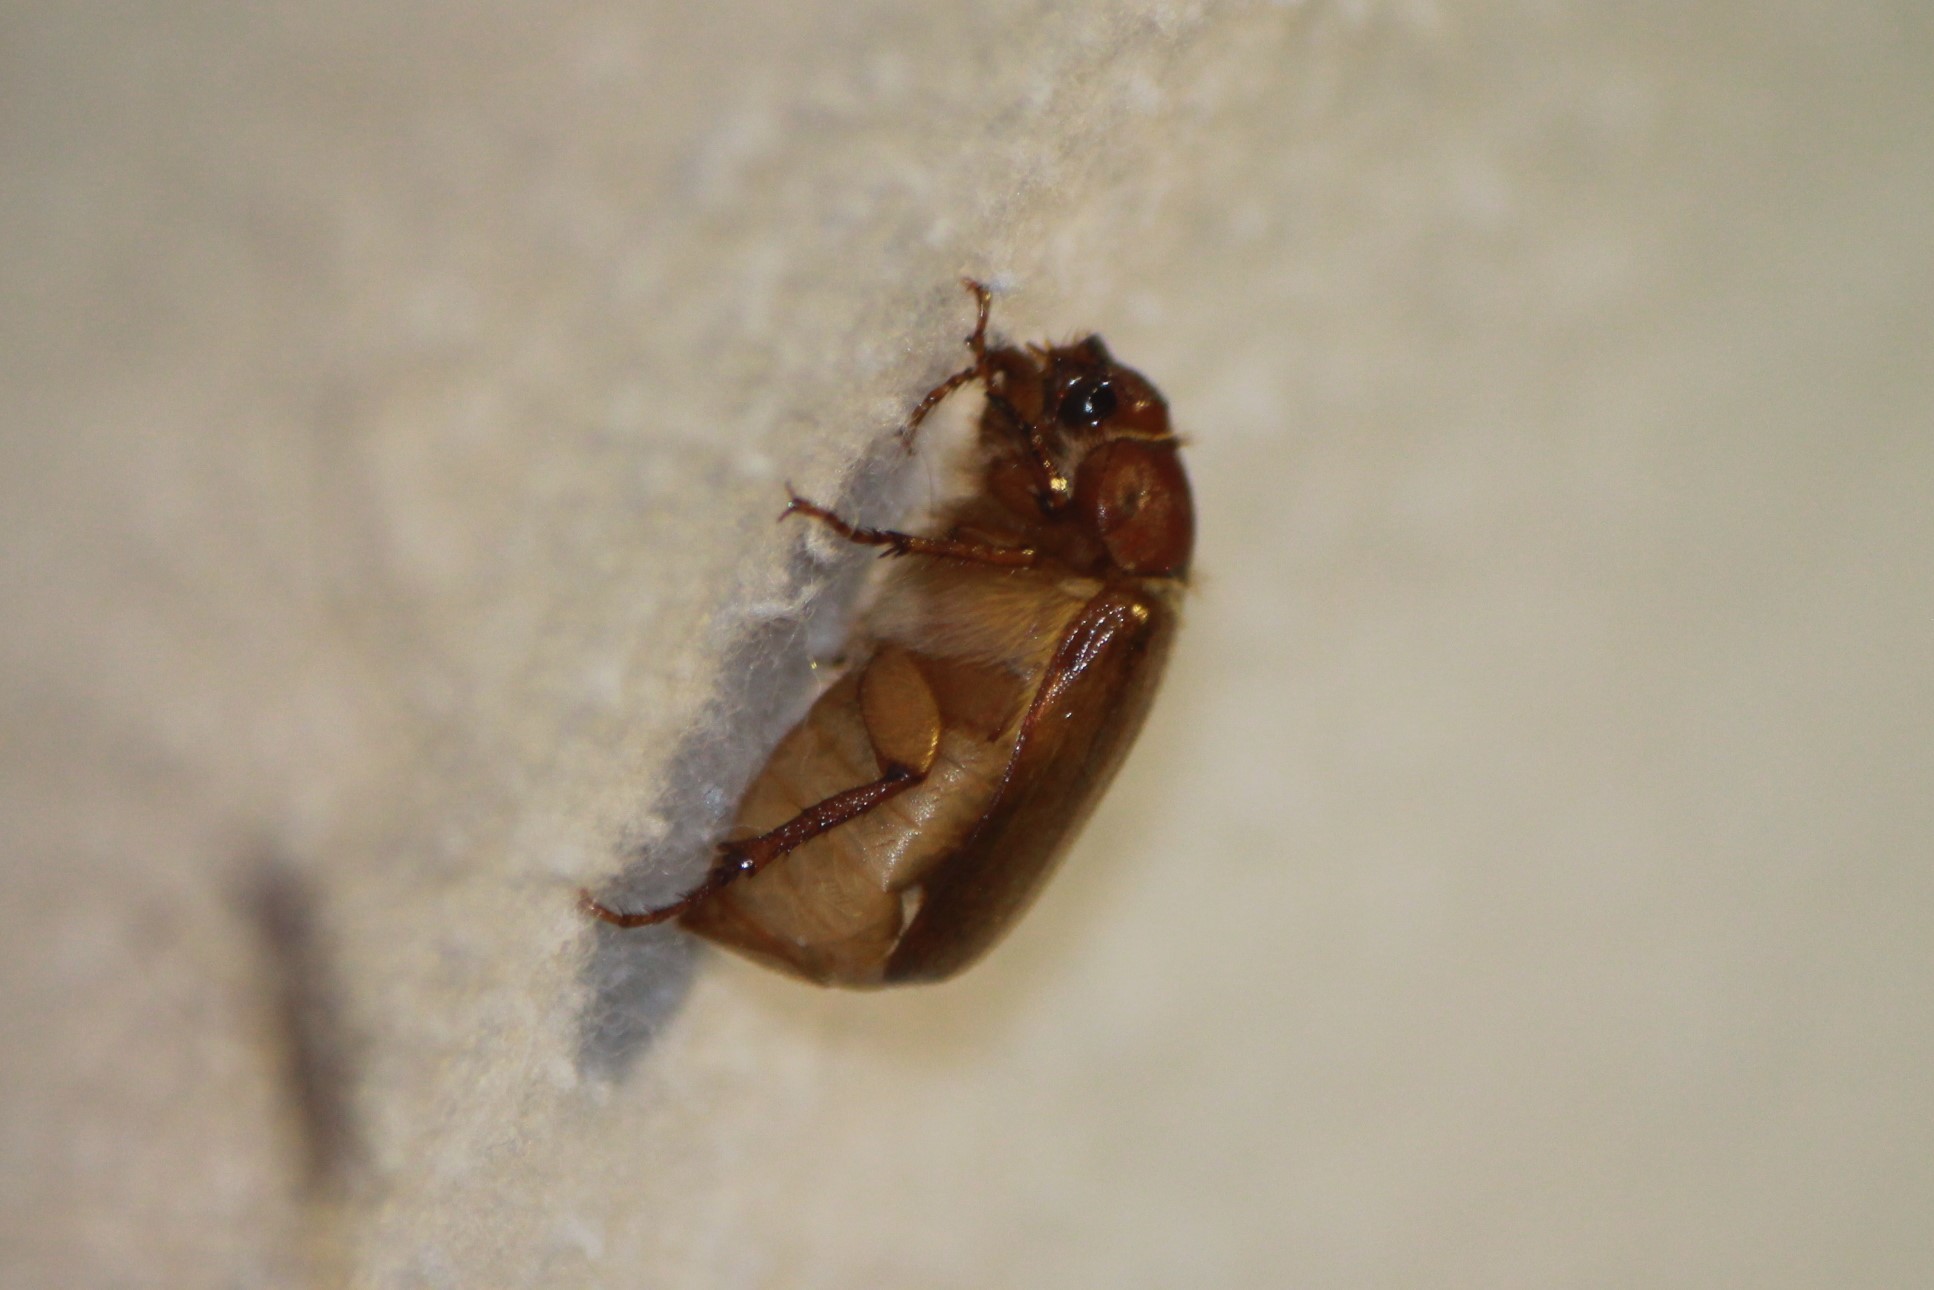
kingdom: Animalia
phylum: Arthropoda
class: Insecta
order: Coleoptera
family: Scarabaeidae
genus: Amphimallon
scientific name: Amphimallon majale
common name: European chafer
